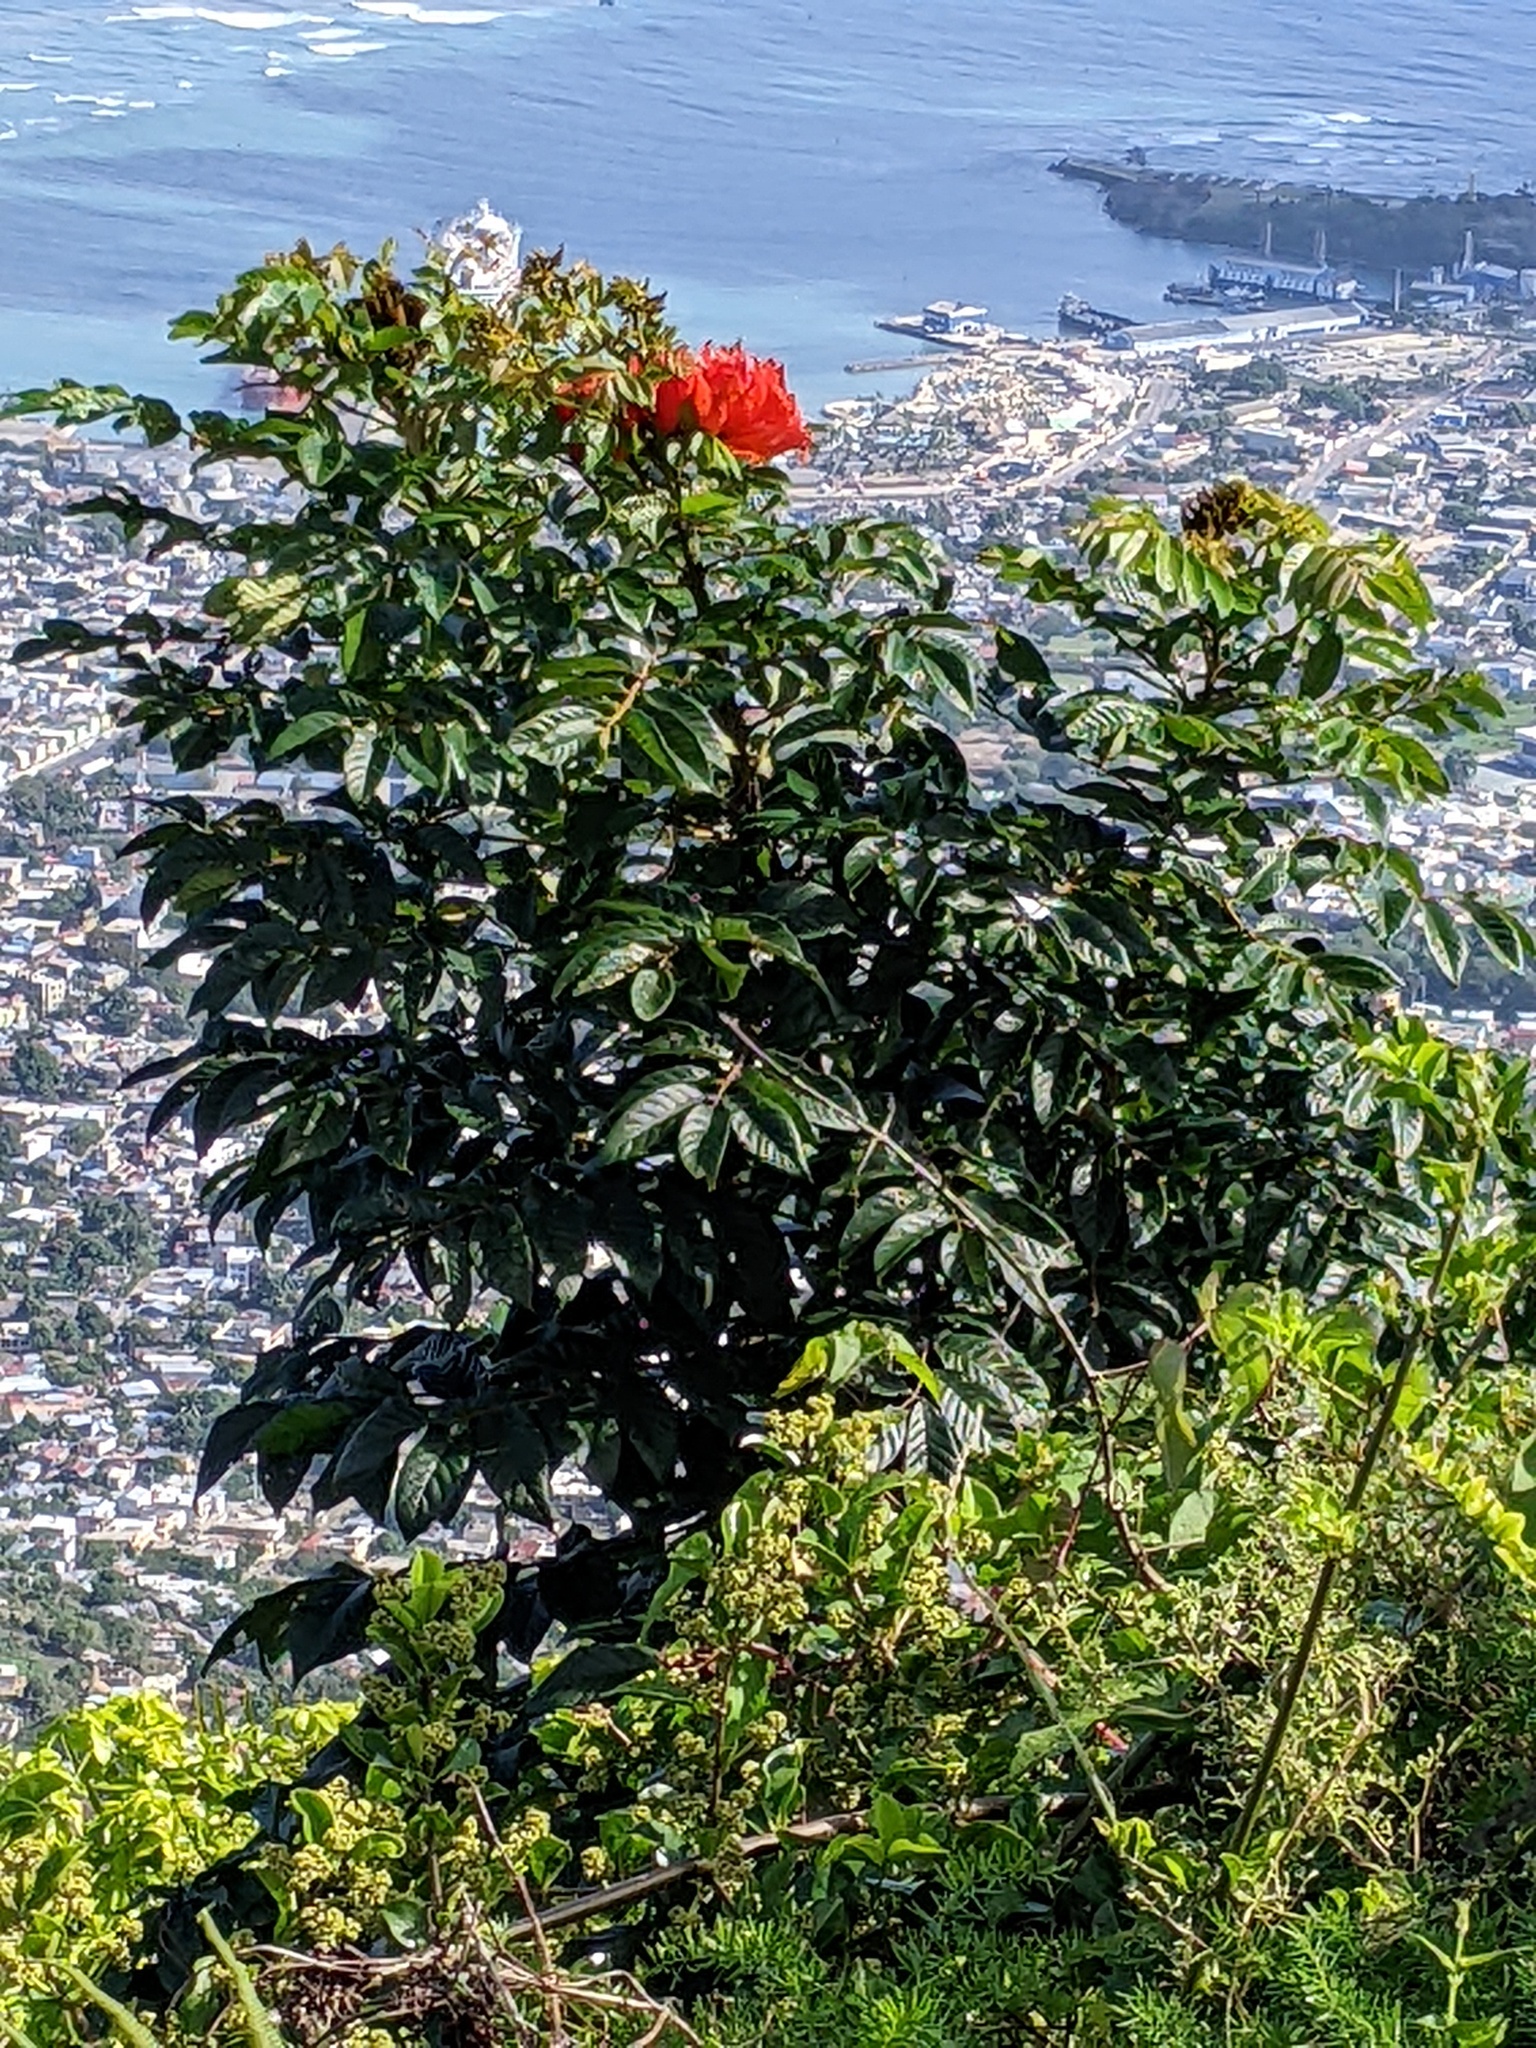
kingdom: Plantae
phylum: Tracheophyta
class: Magnoliopsida
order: Lamiales
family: Bignoniaceae
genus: Spathodea
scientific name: Spathodea campanulata
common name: African tuliptree
